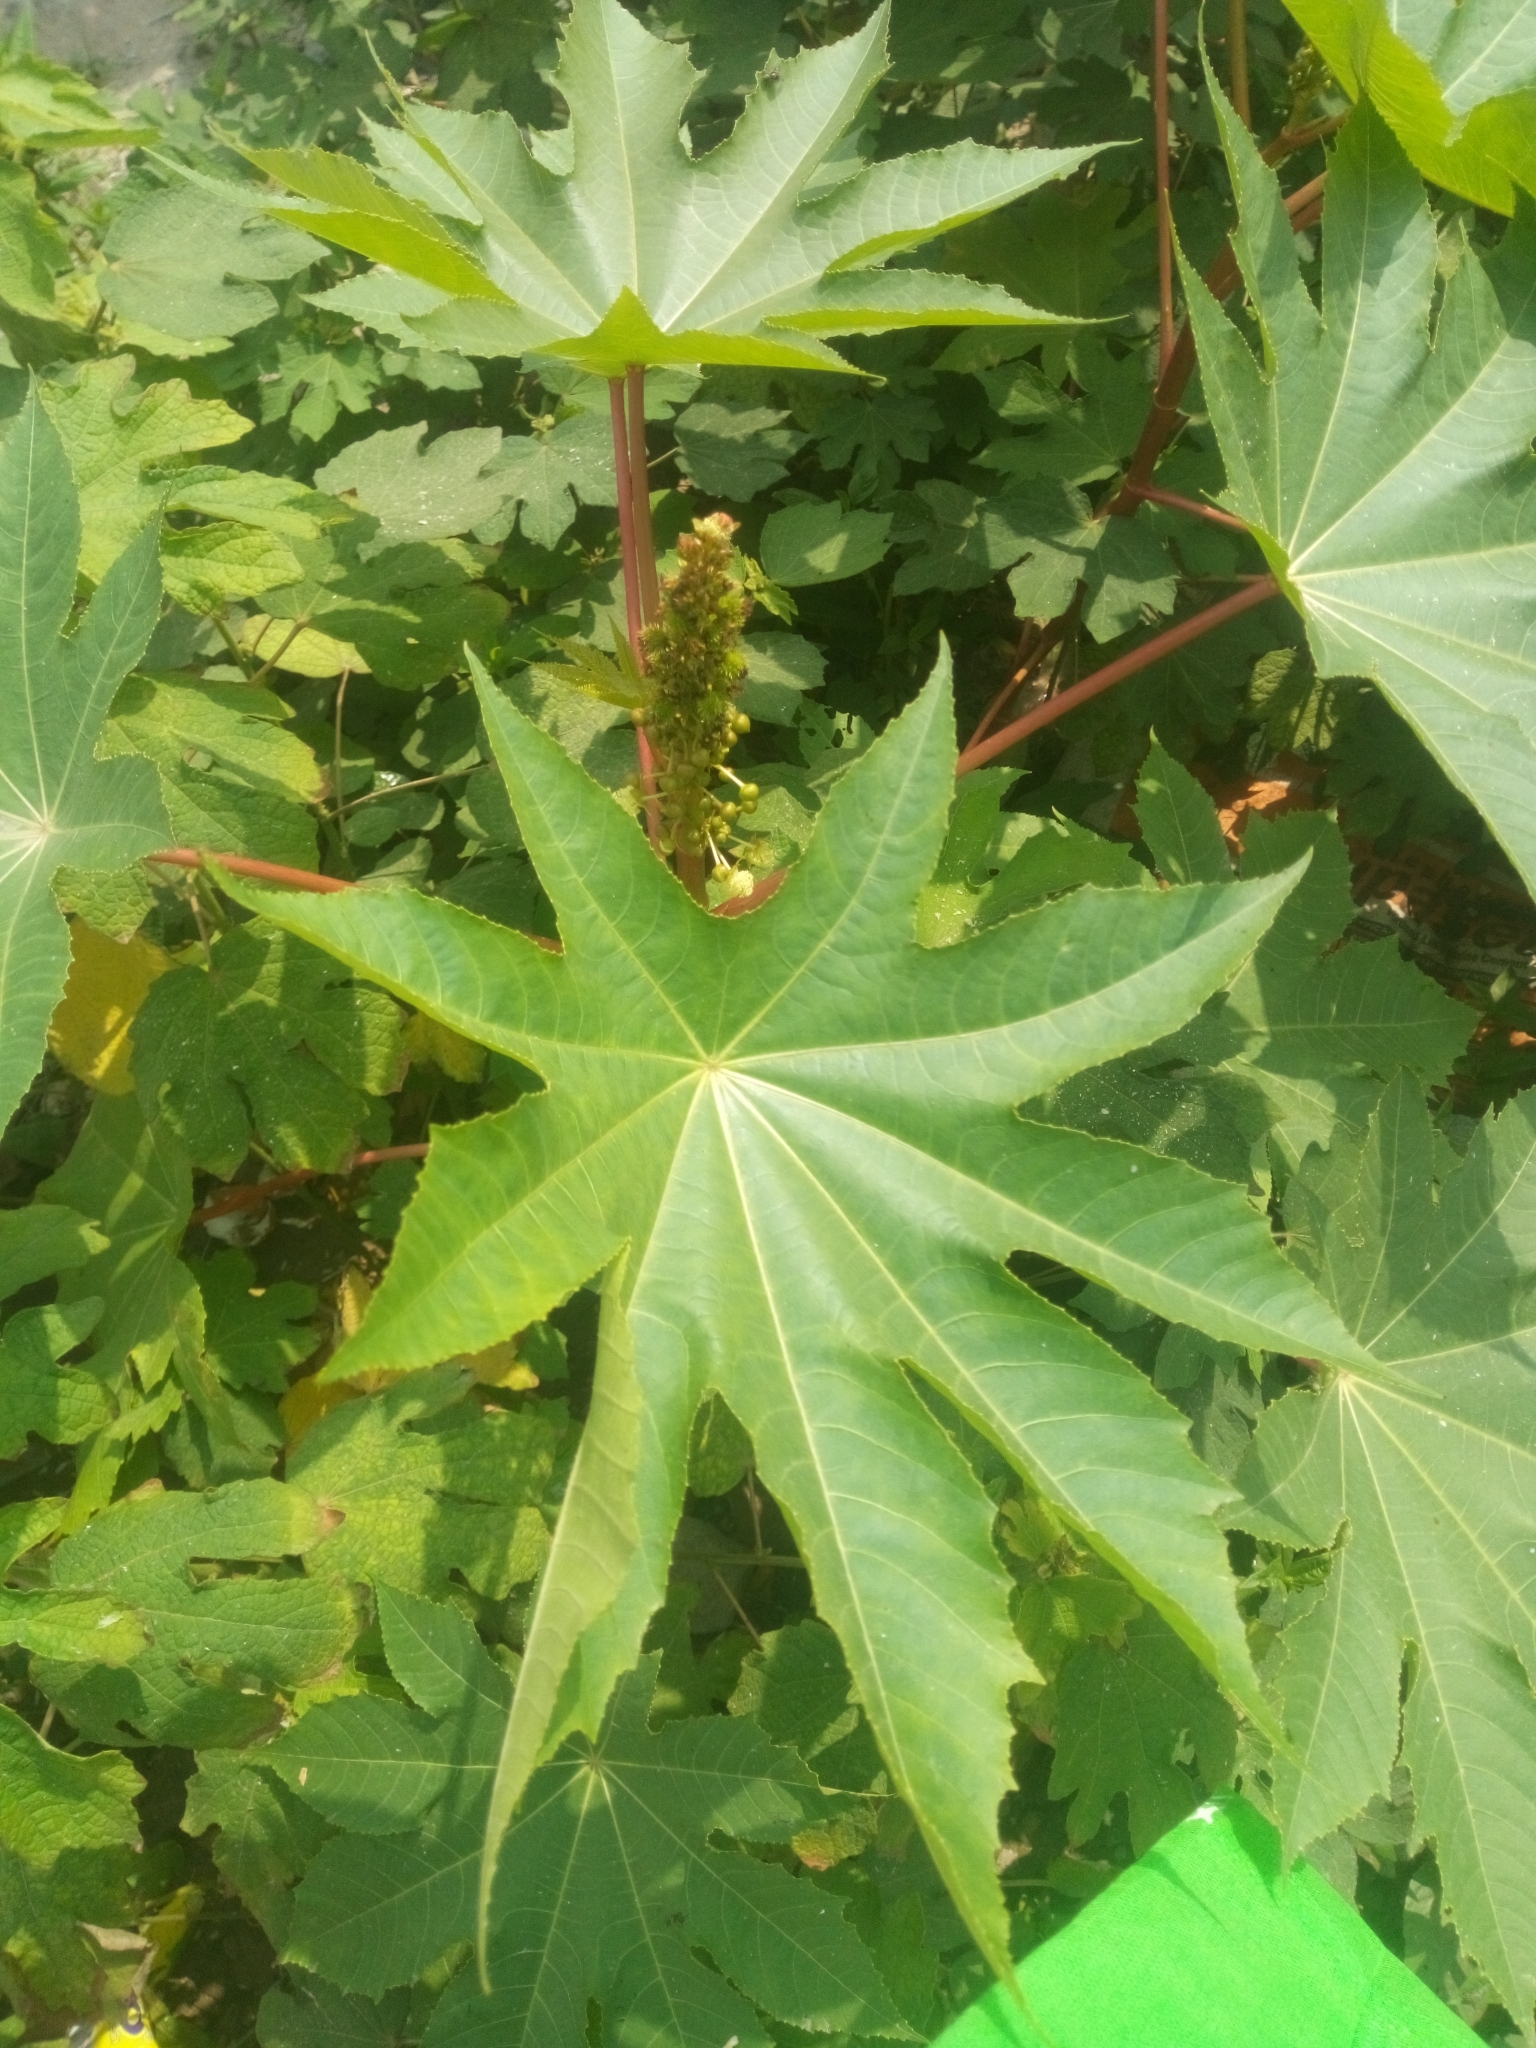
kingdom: Plantae
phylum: Tracheophyta
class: Magnoliopsida
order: Malpighiales
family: Euphorbiaceae
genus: Ricinus
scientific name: Ricinus communis
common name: Castor-oil-plant
